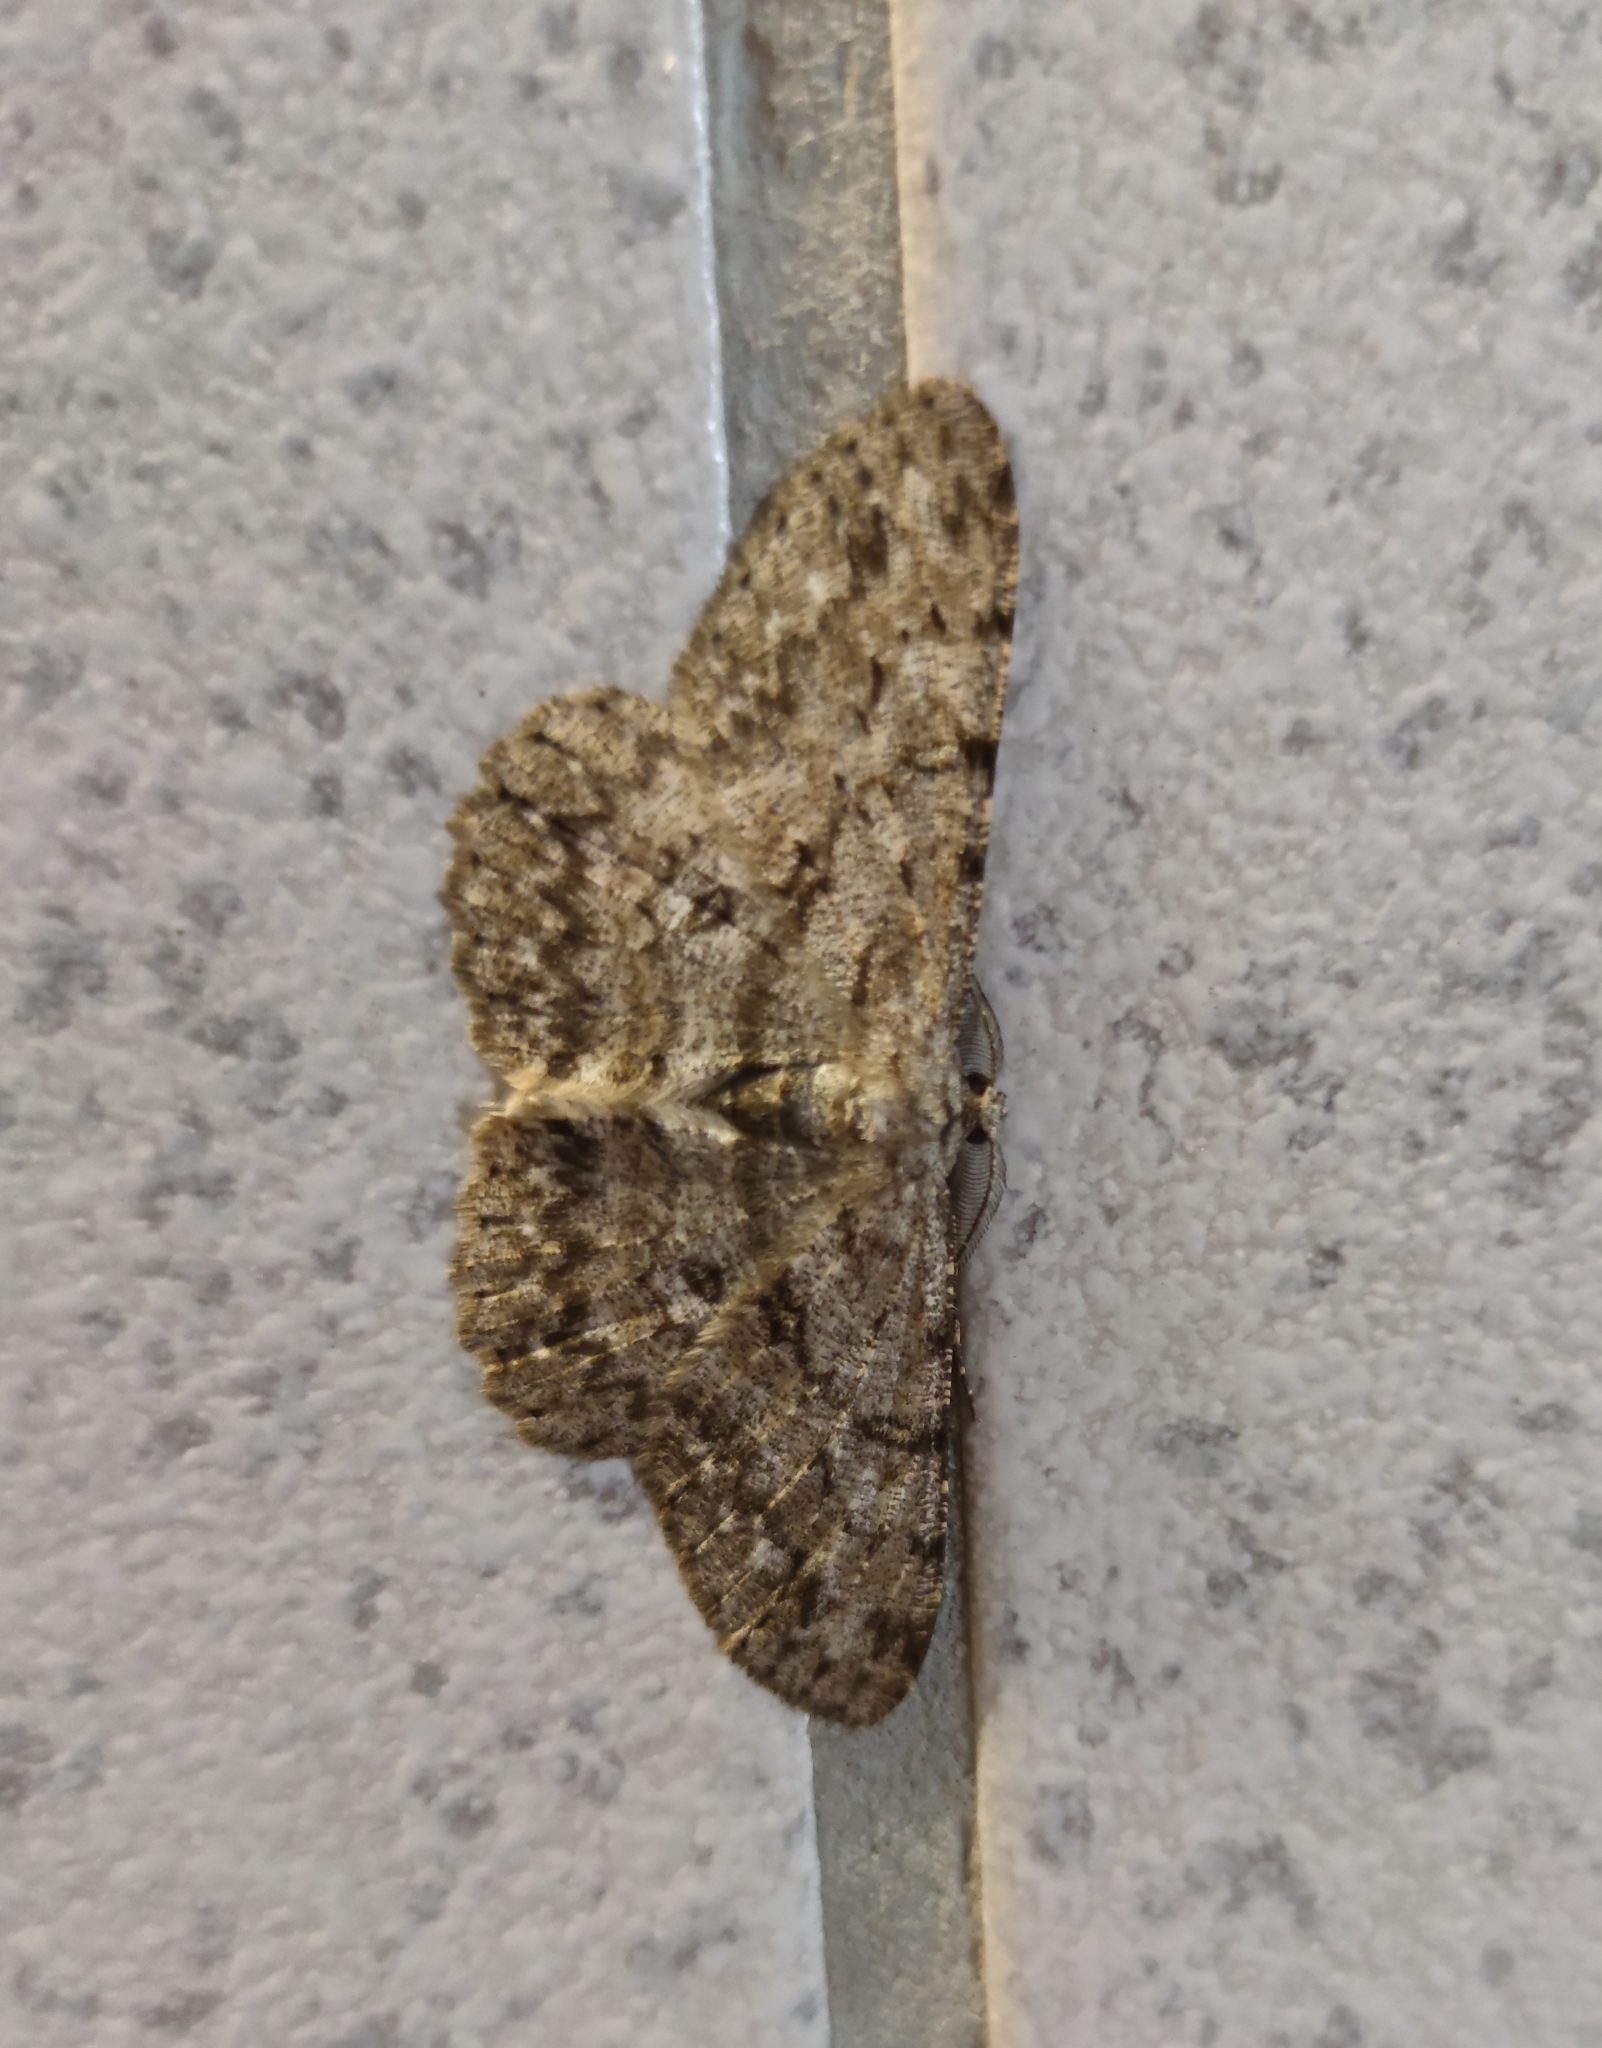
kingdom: Animalia
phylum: Arthropoda
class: Insecta
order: Lepidoptera
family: Geometridae
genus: Hypomecis
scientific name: Hypomecis punctinalis
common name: Pale oak beauty
